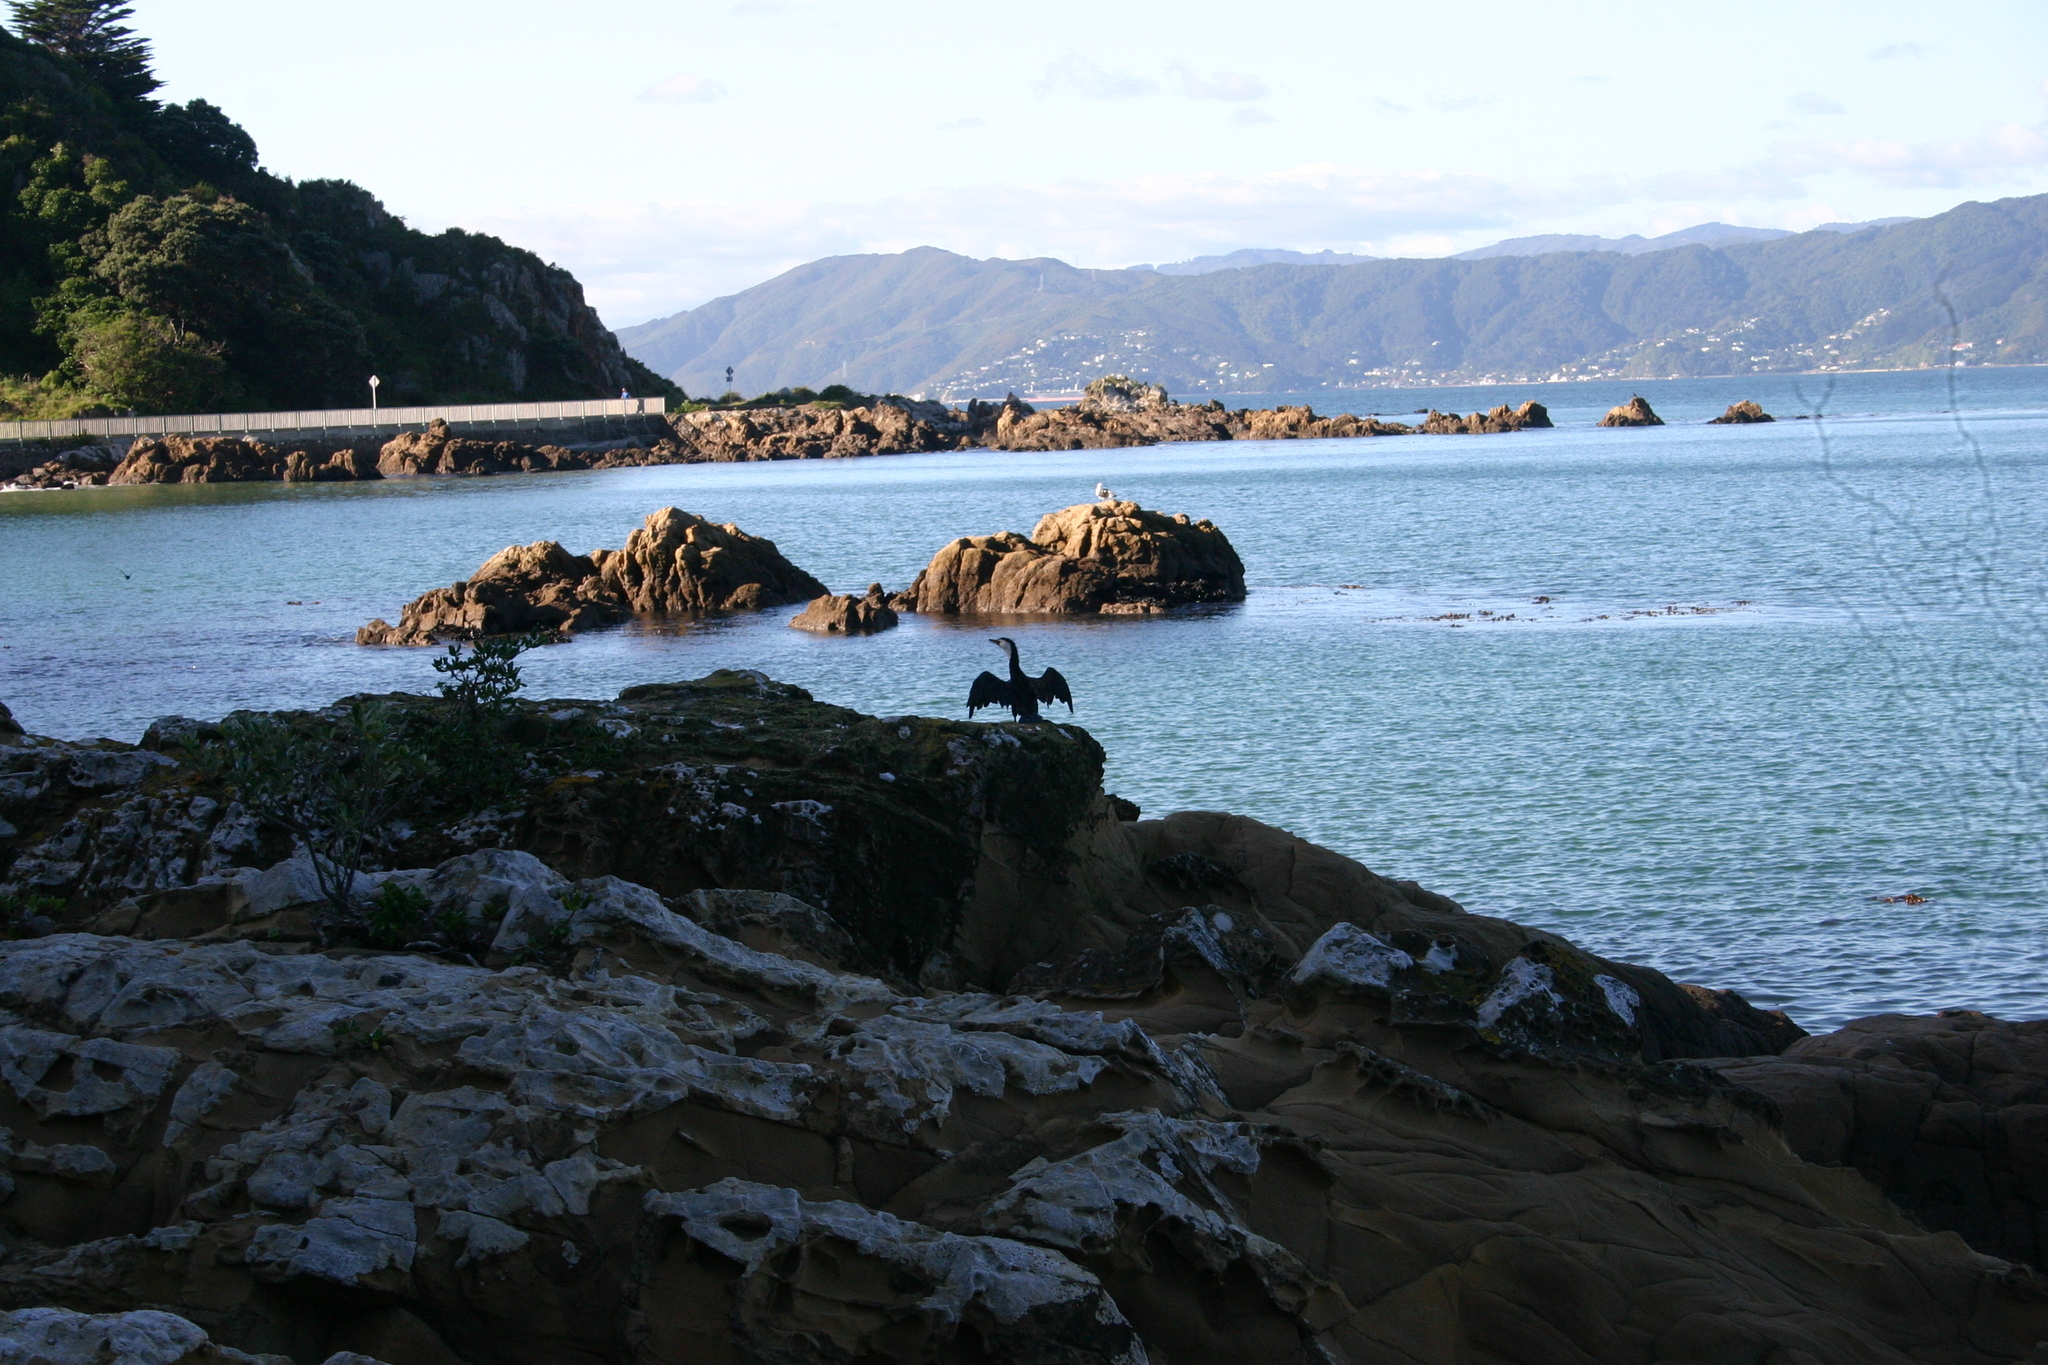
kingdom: Animalia
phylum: Chordata
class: Aves
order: Suliformes
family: Phalacrocoracidae
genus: Microcarbo
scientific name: Microcarbo melanoleucos
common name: Little pied cormorant
